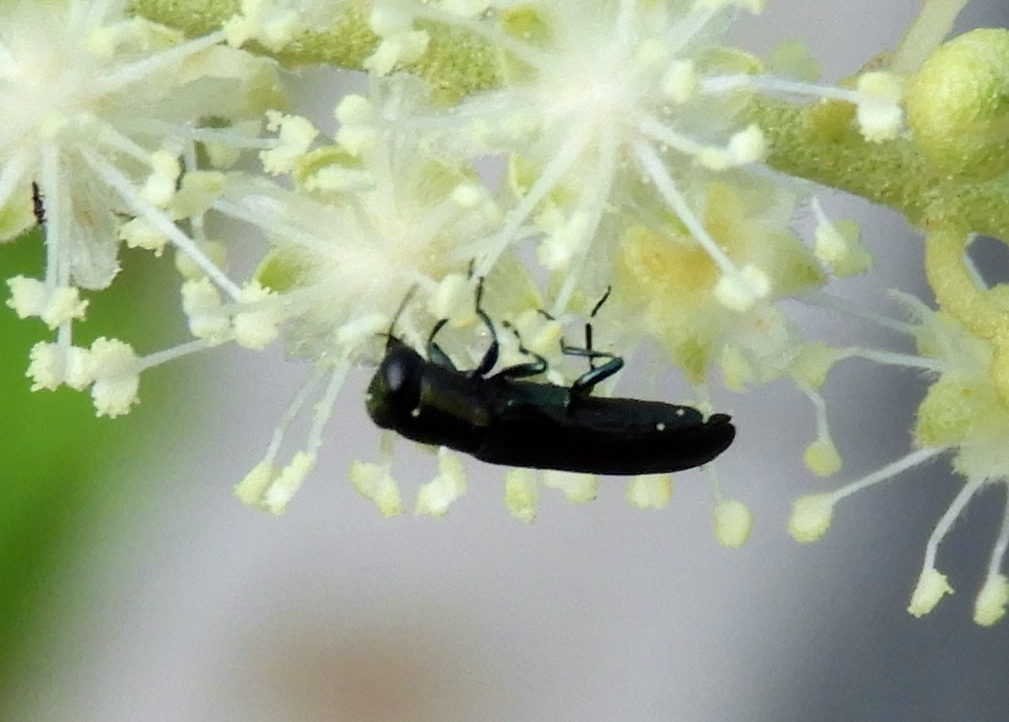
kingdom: Animalia
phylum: Arthropoda
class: Insecta
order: Coleoptera
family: Buprestidae
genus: Agrilaxia
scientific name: Agrilaxia
